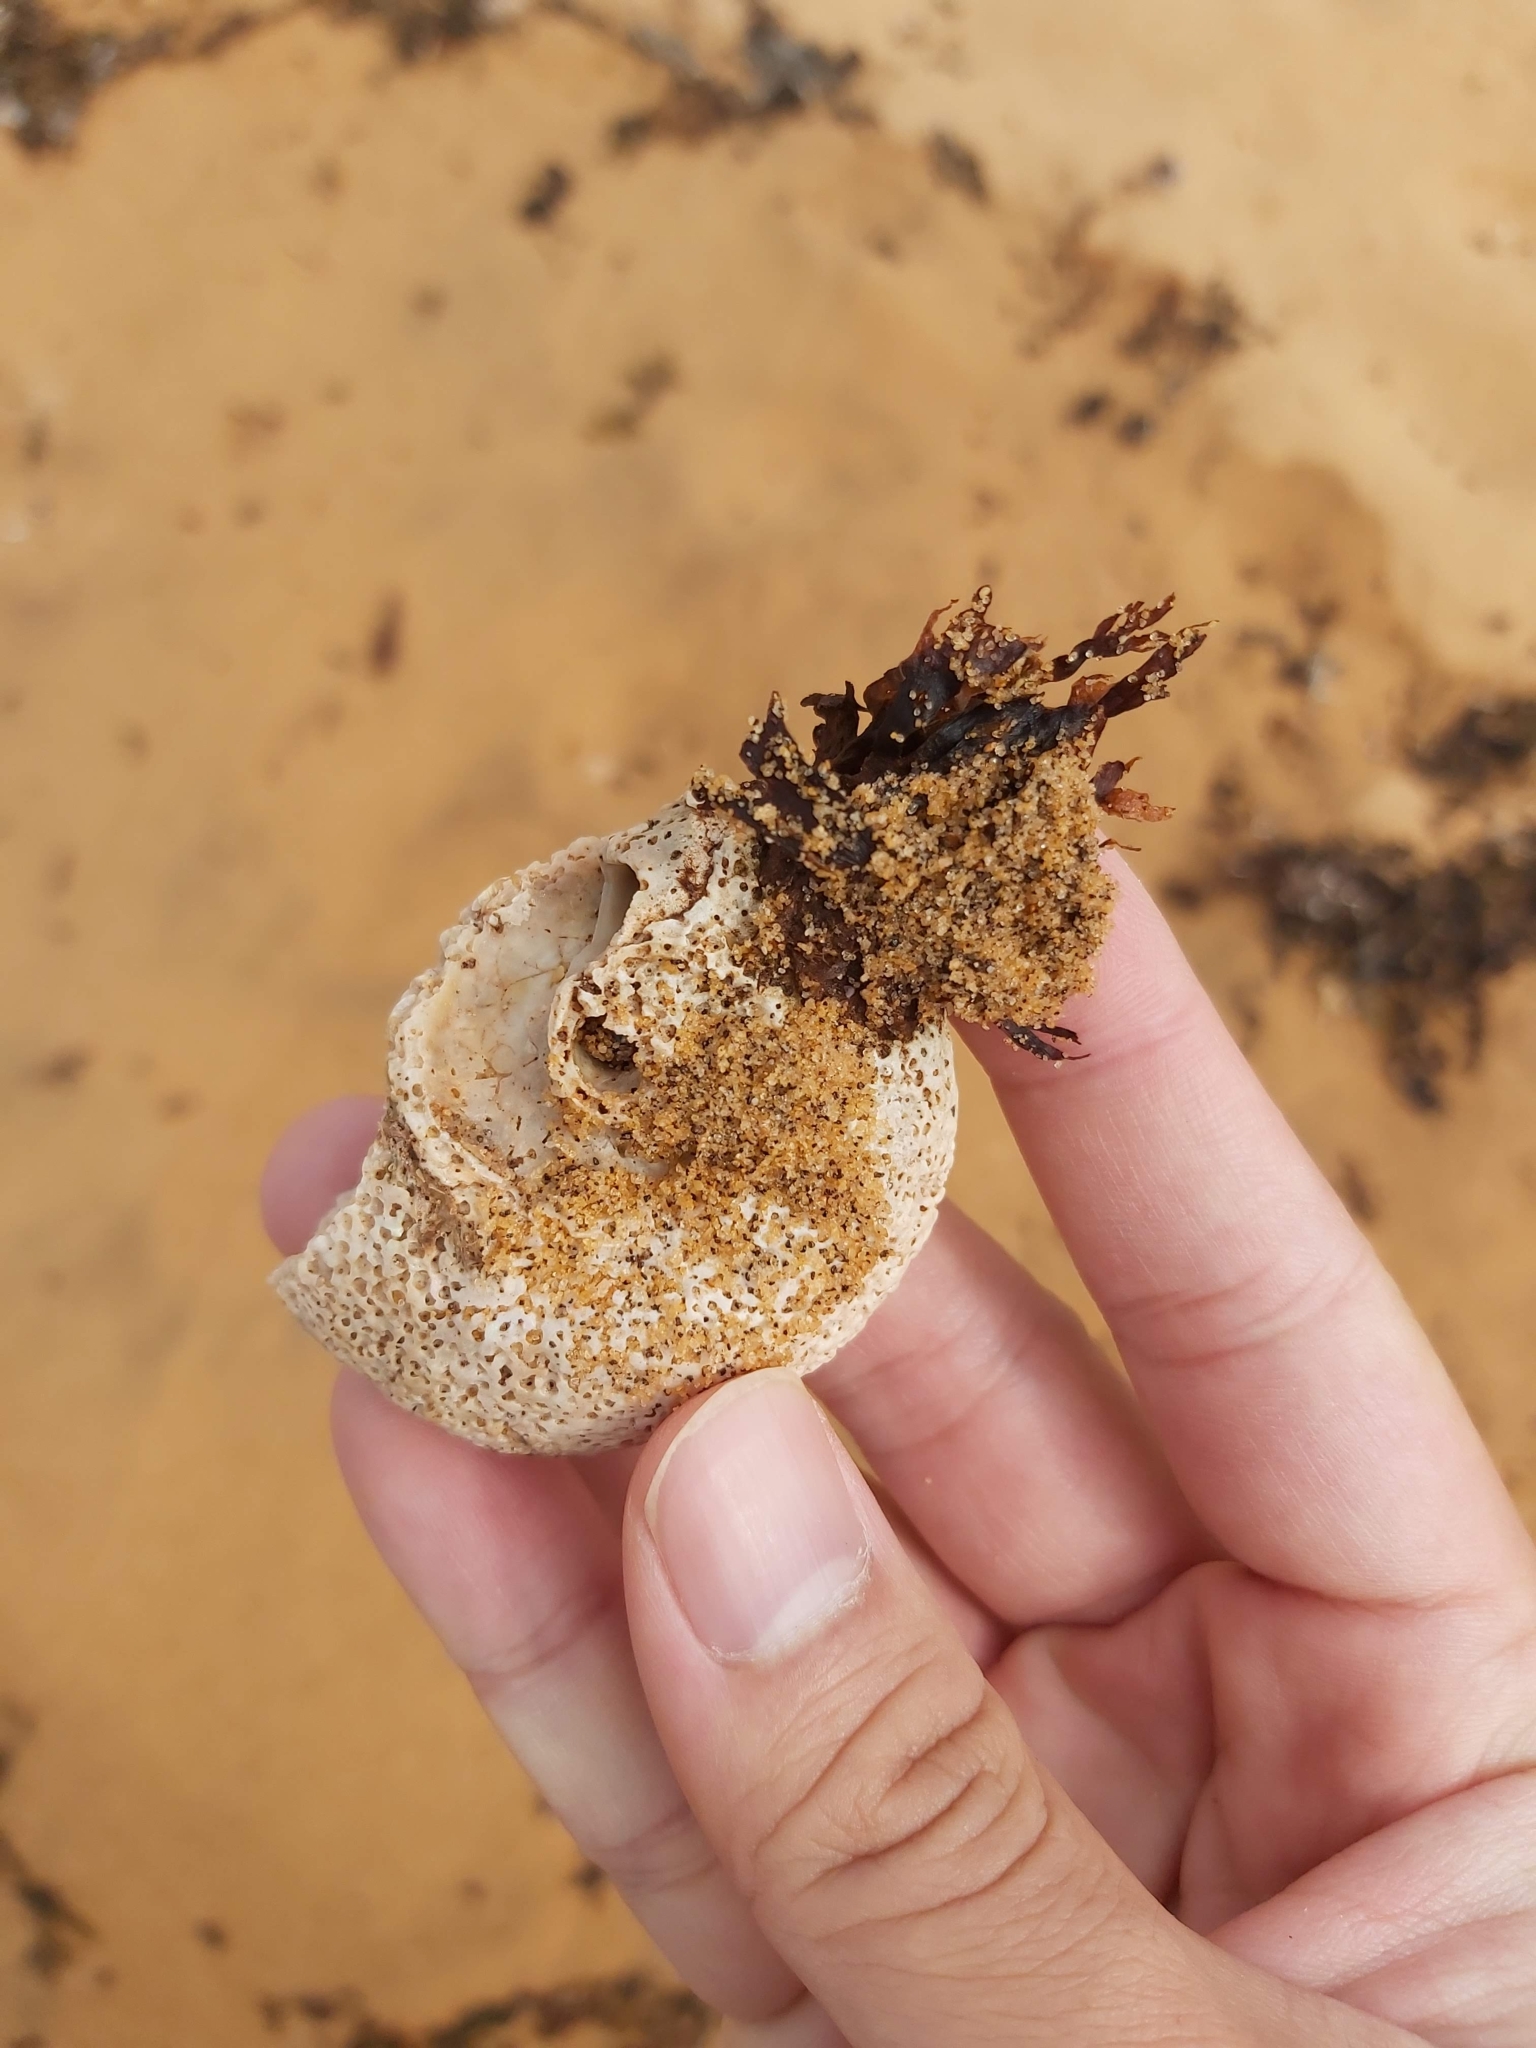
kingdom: Animalia
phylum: Mollusca
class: Gastropoda
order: Trochida
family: Turbinidae
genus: Lunella
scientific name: Lunella torquata
